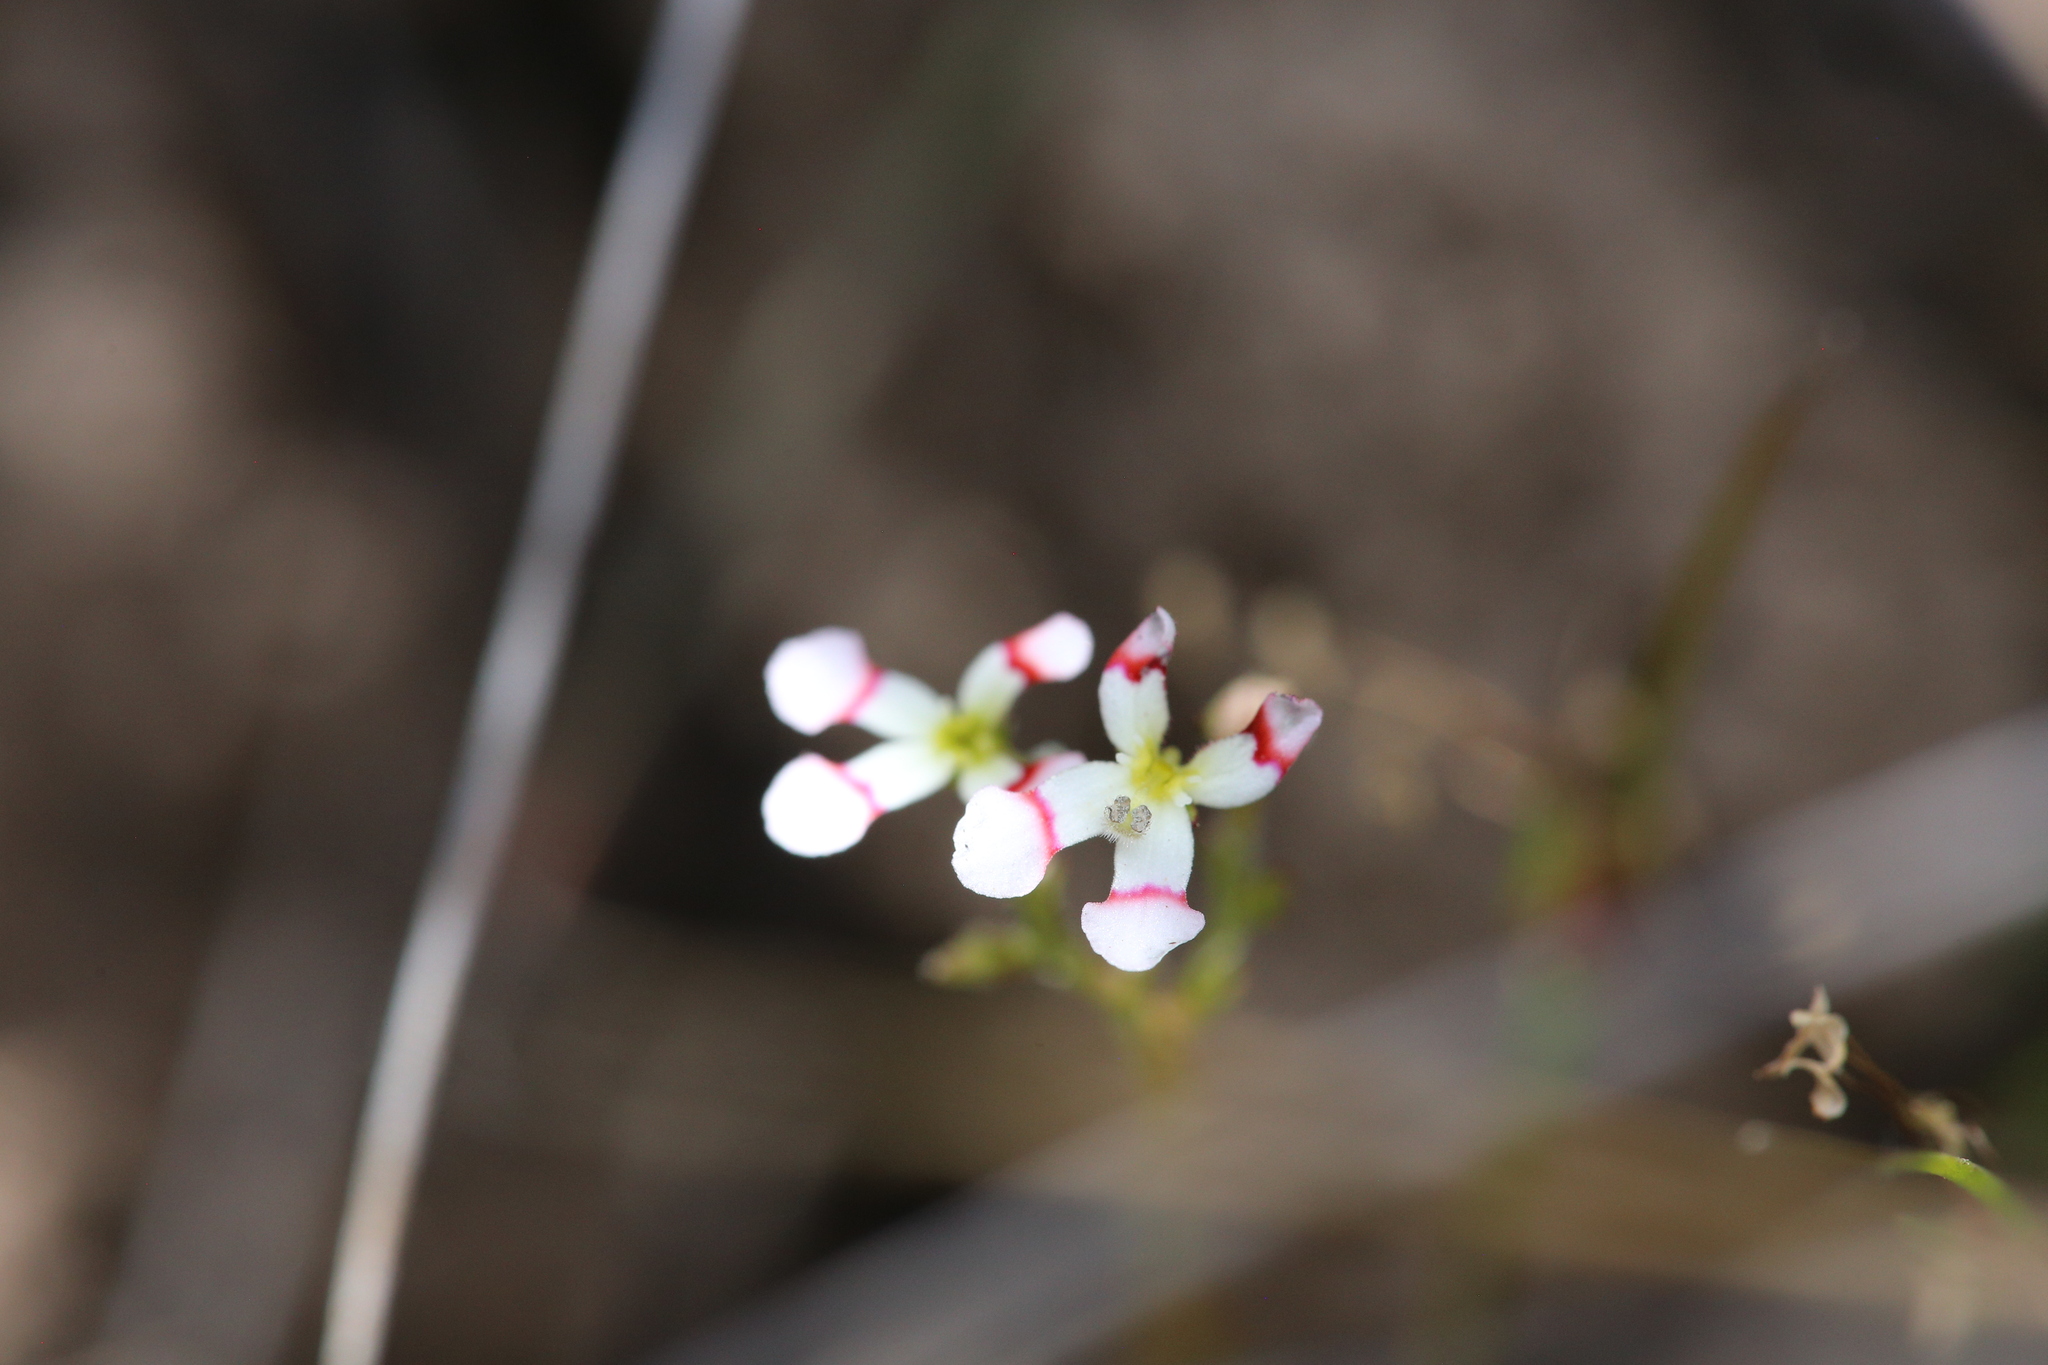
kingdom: Plantae
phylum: Tracheophyta
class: Magnoliopsida
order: Asterales
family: Stylidiaceae
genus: Stylidium
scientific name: Stylidium utricularioides
